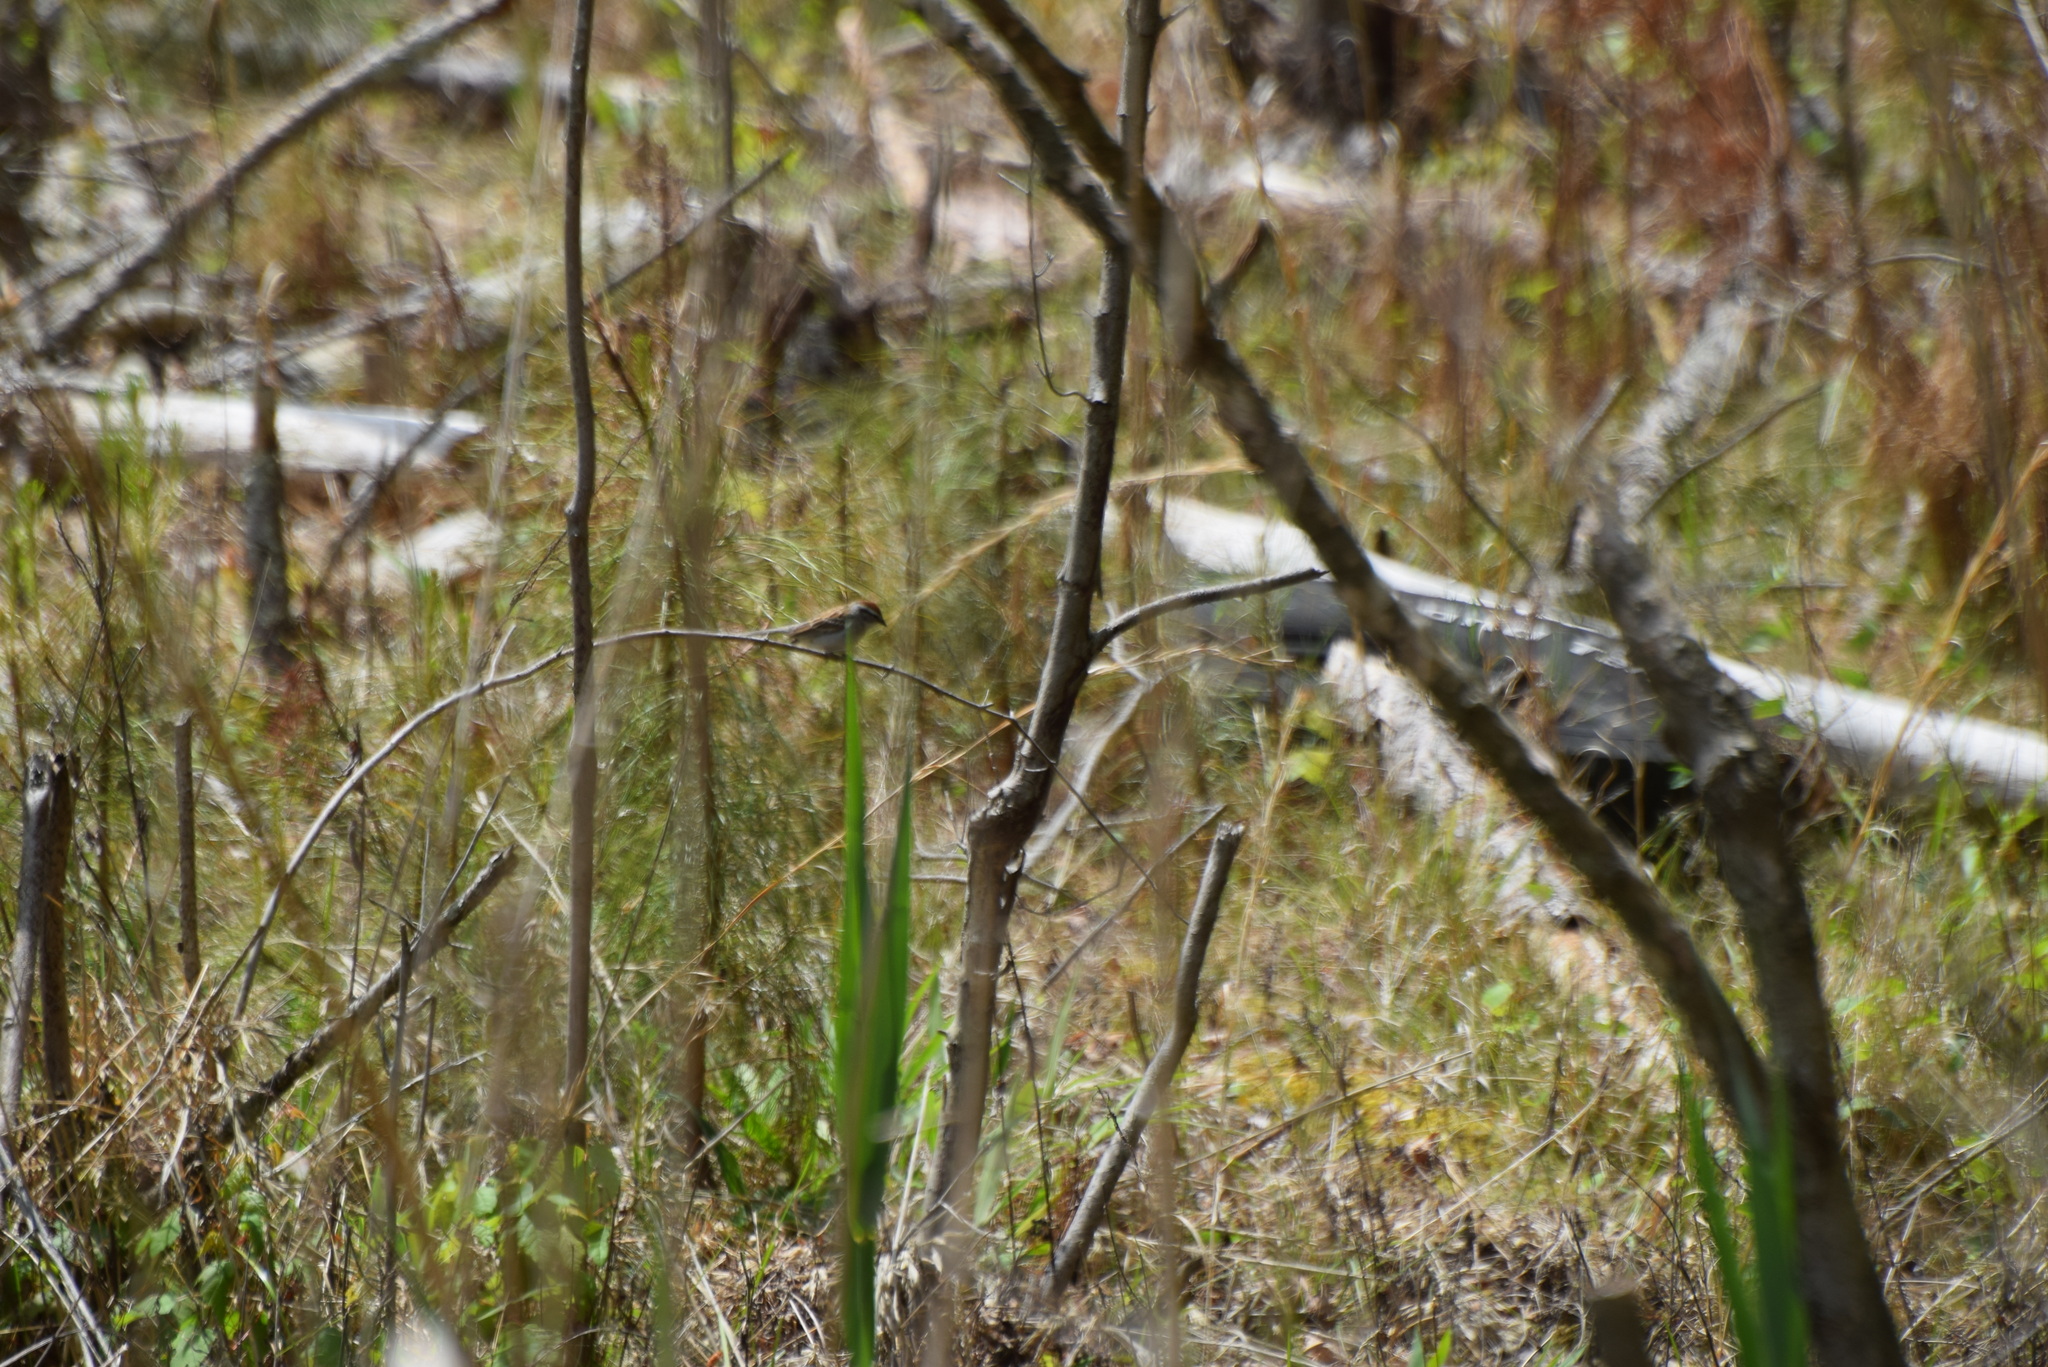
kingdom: Animalia
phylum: Chordata
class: Aves
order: Passeriformes
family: Passerellidae
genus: Spizella
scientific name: Spizella passerina
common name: Chipping sparrow
